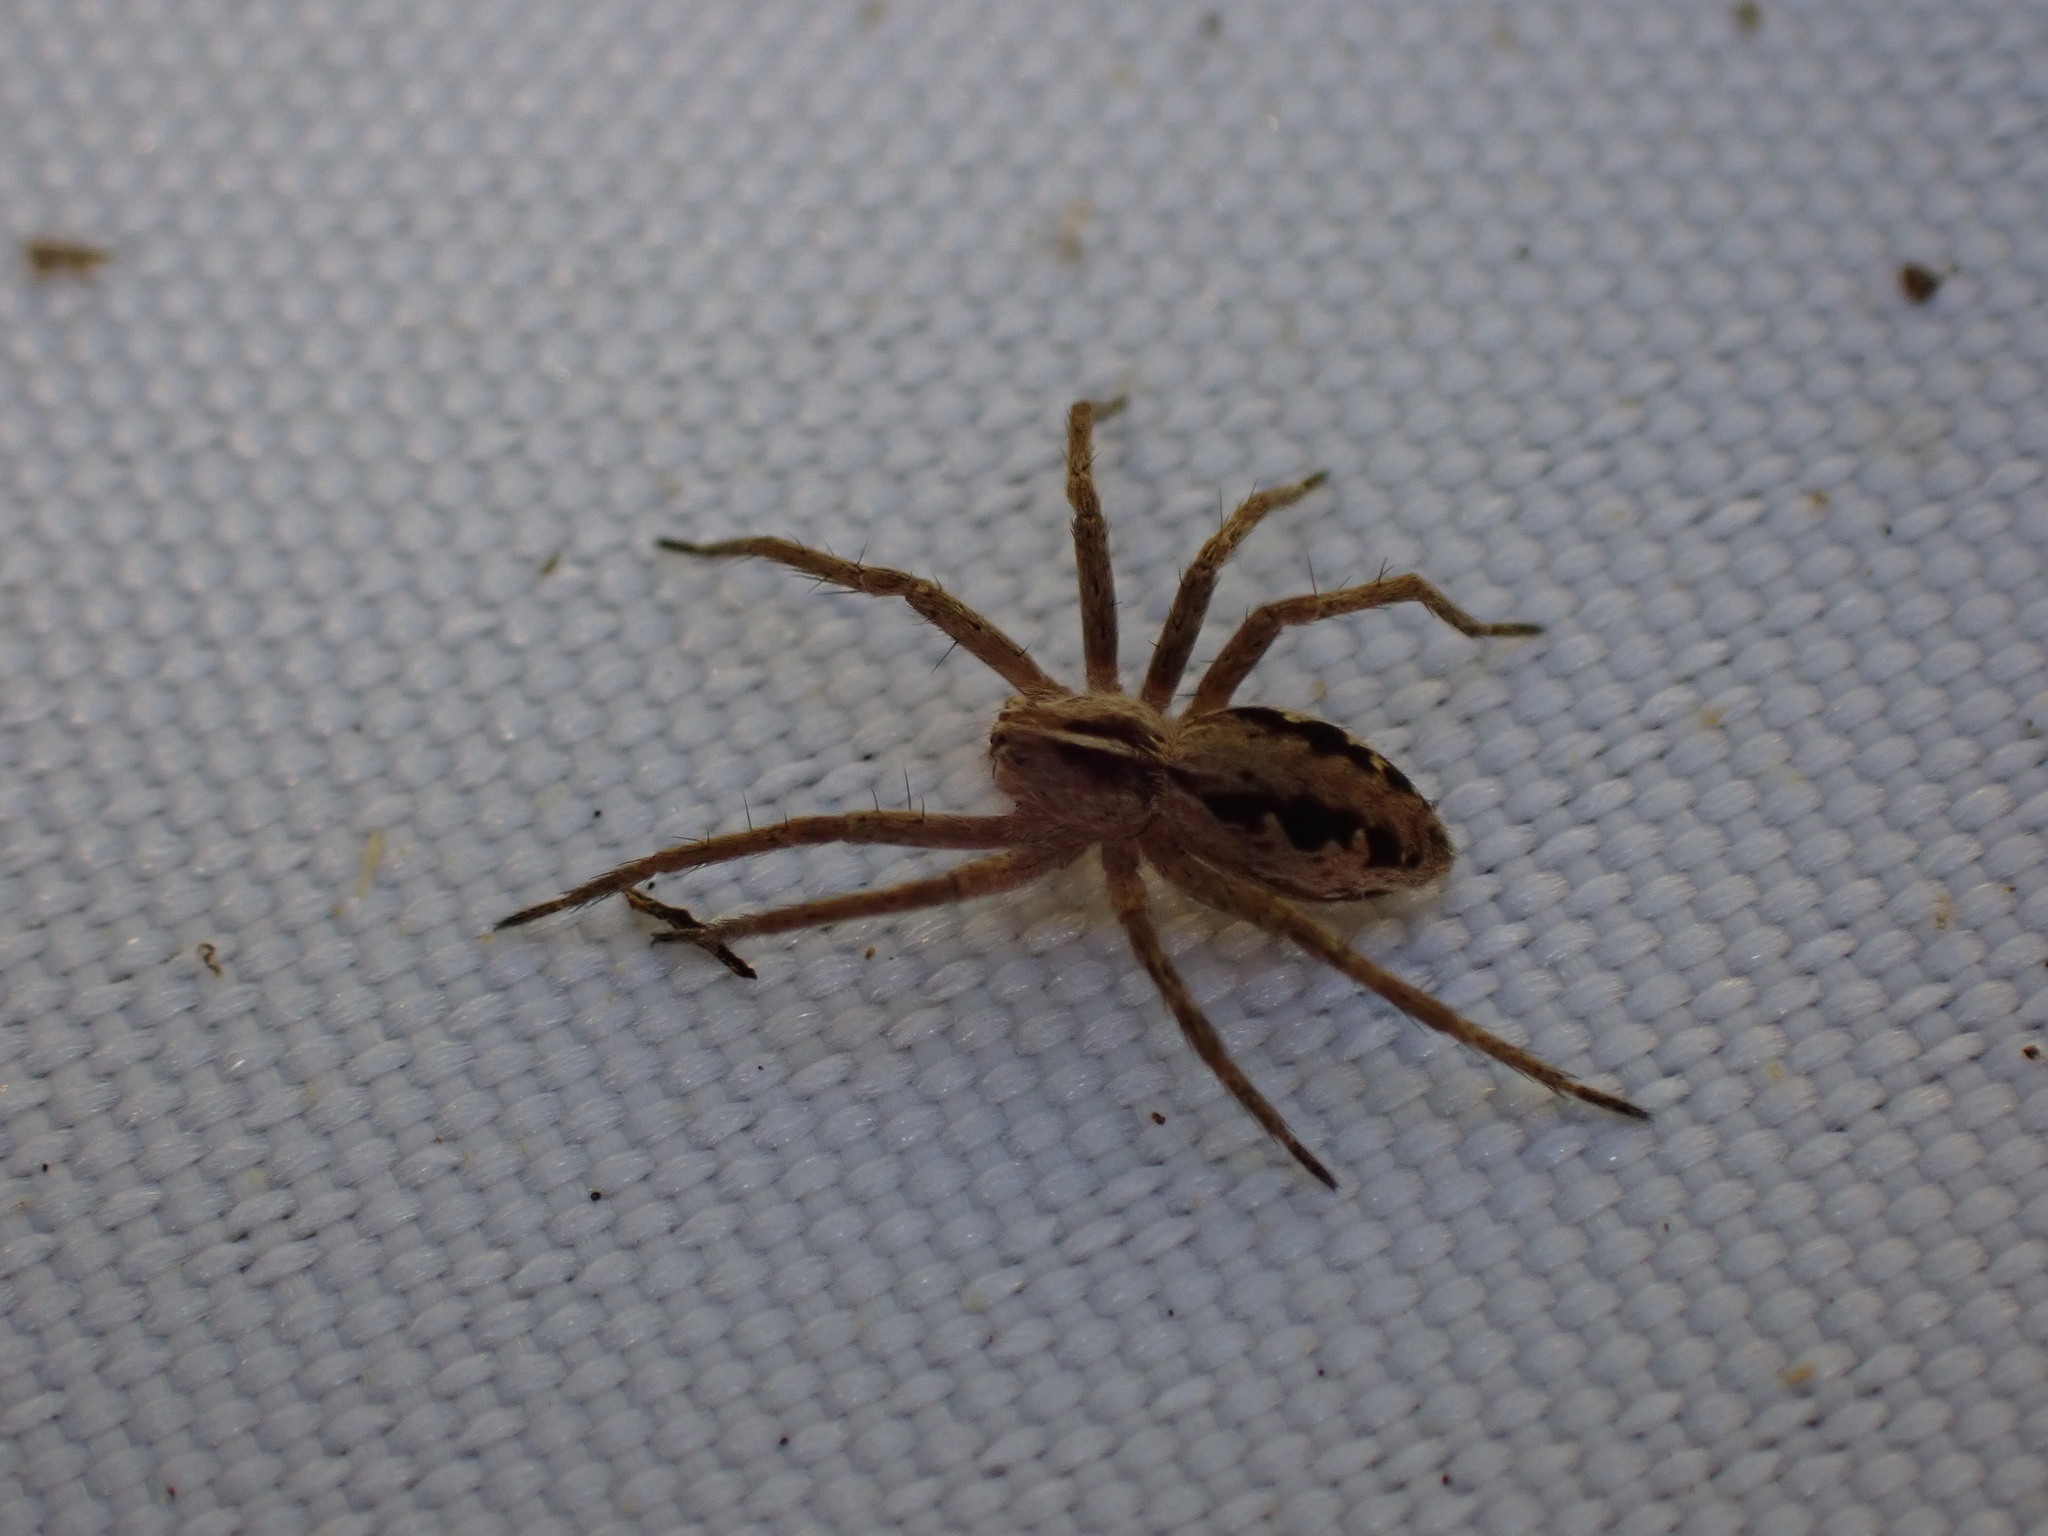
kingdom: Animalia
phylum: Arthropoda
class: Arachnida
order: Araneae
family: Pisauridae
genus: Pisaura
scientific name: Pisaura mirabilis
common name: Tent spider
